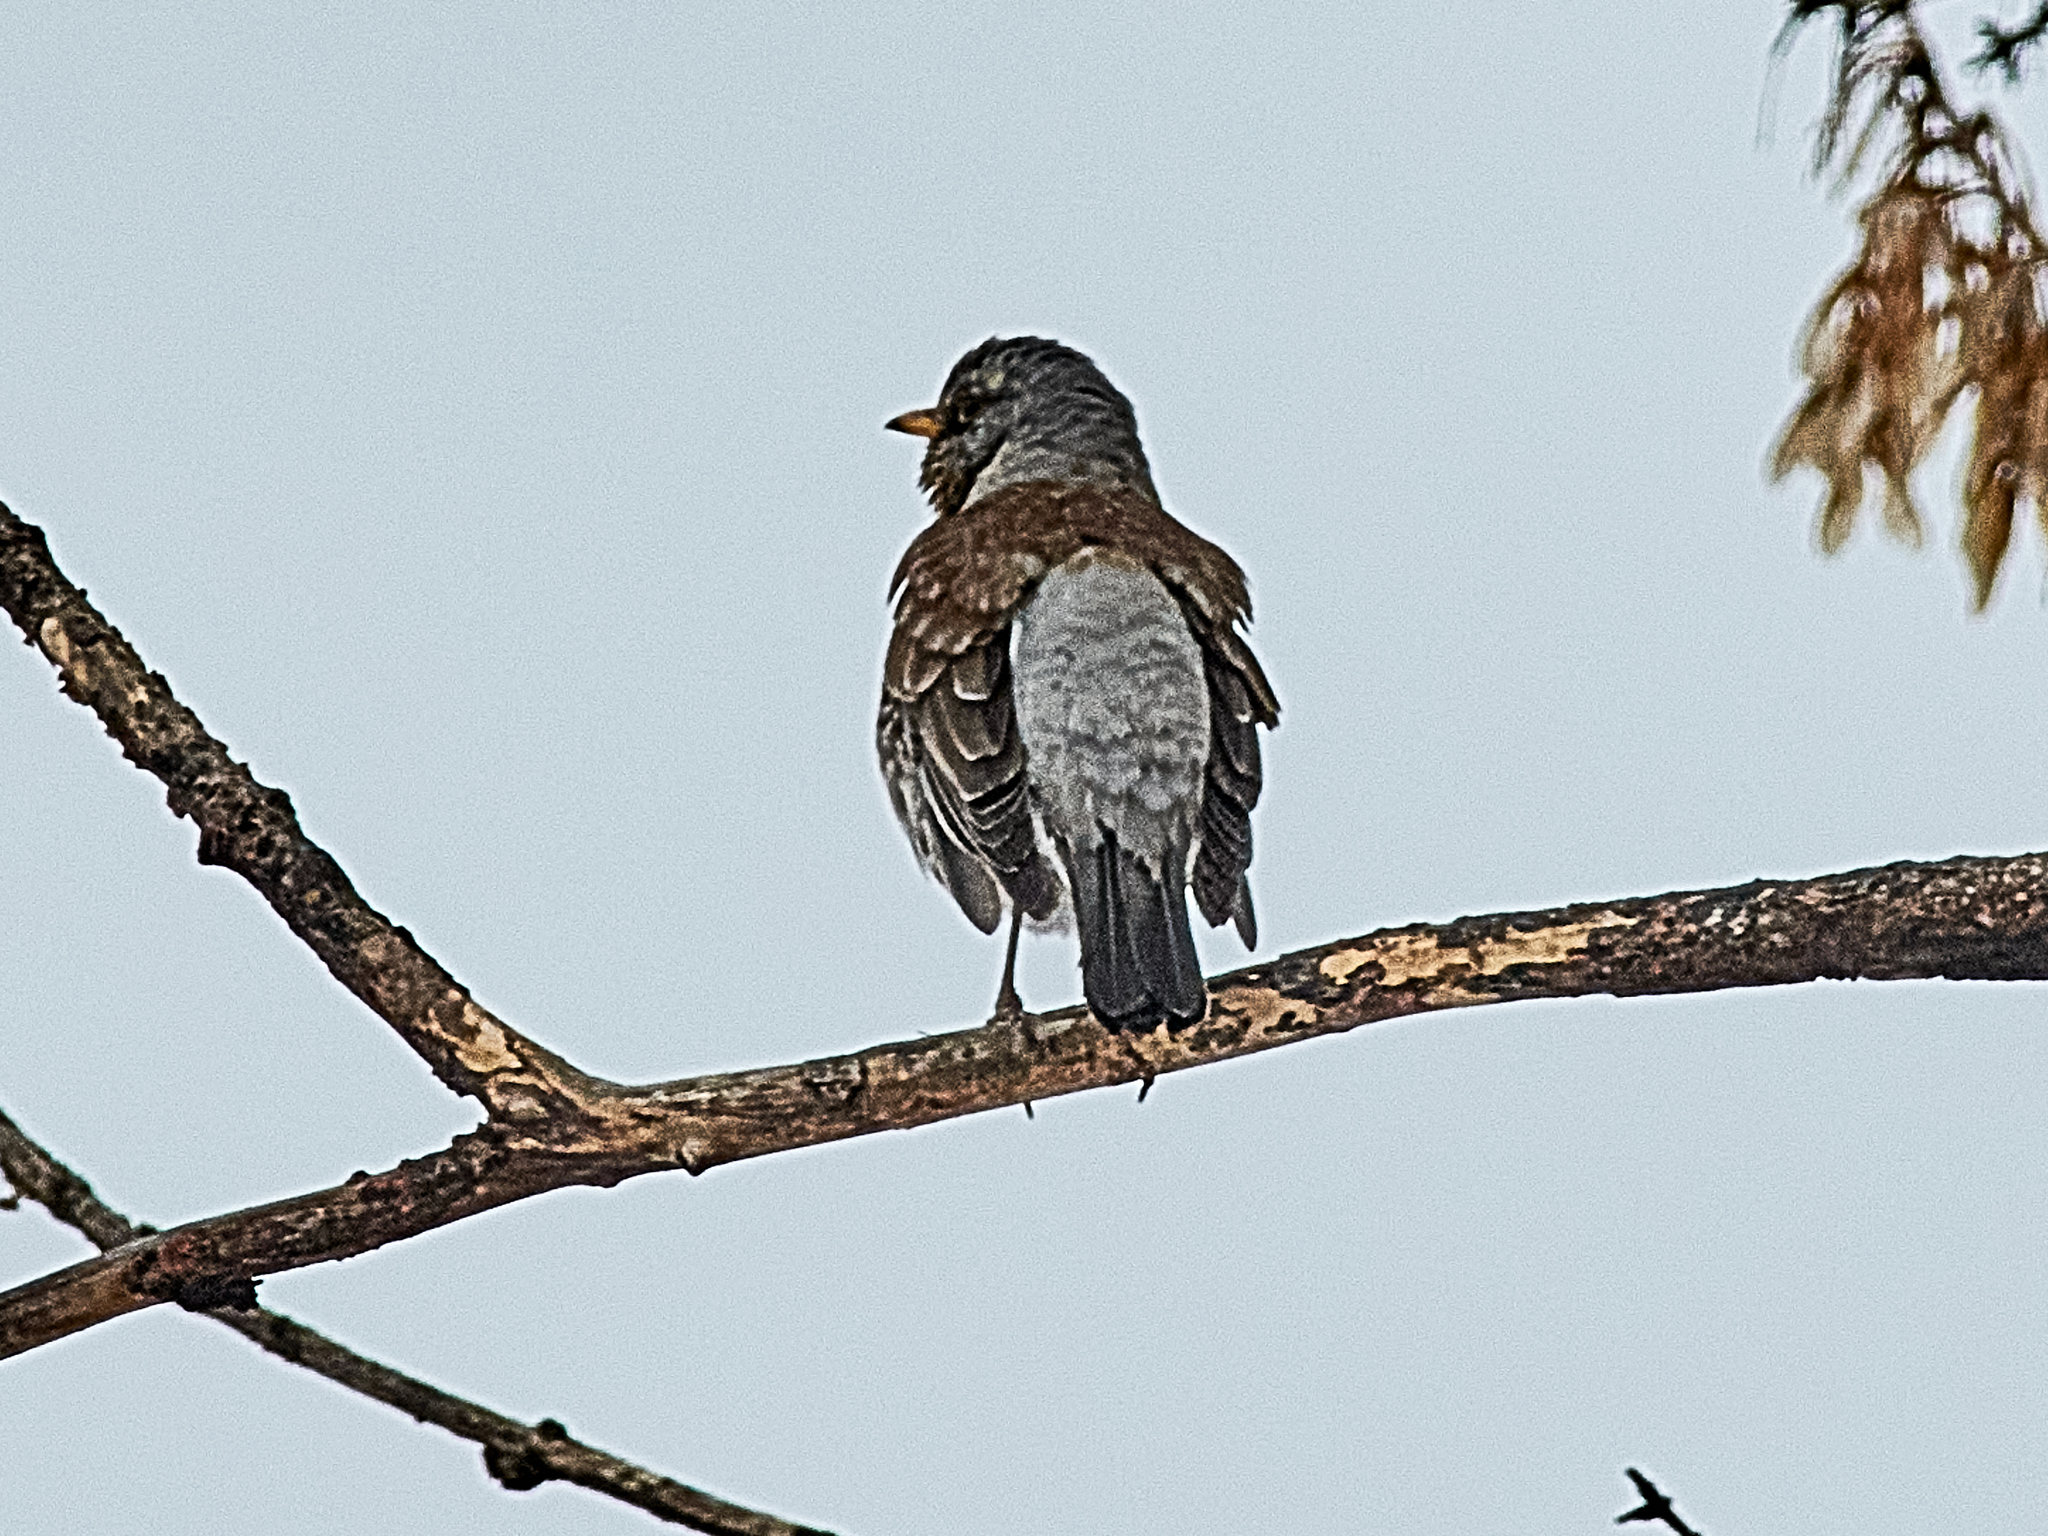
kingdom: Animalia
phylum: Chordata
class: Aves
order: Passeriformes
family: Turdidae
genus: Turdus
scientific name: Turdus pilaris
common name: Fieldfare
